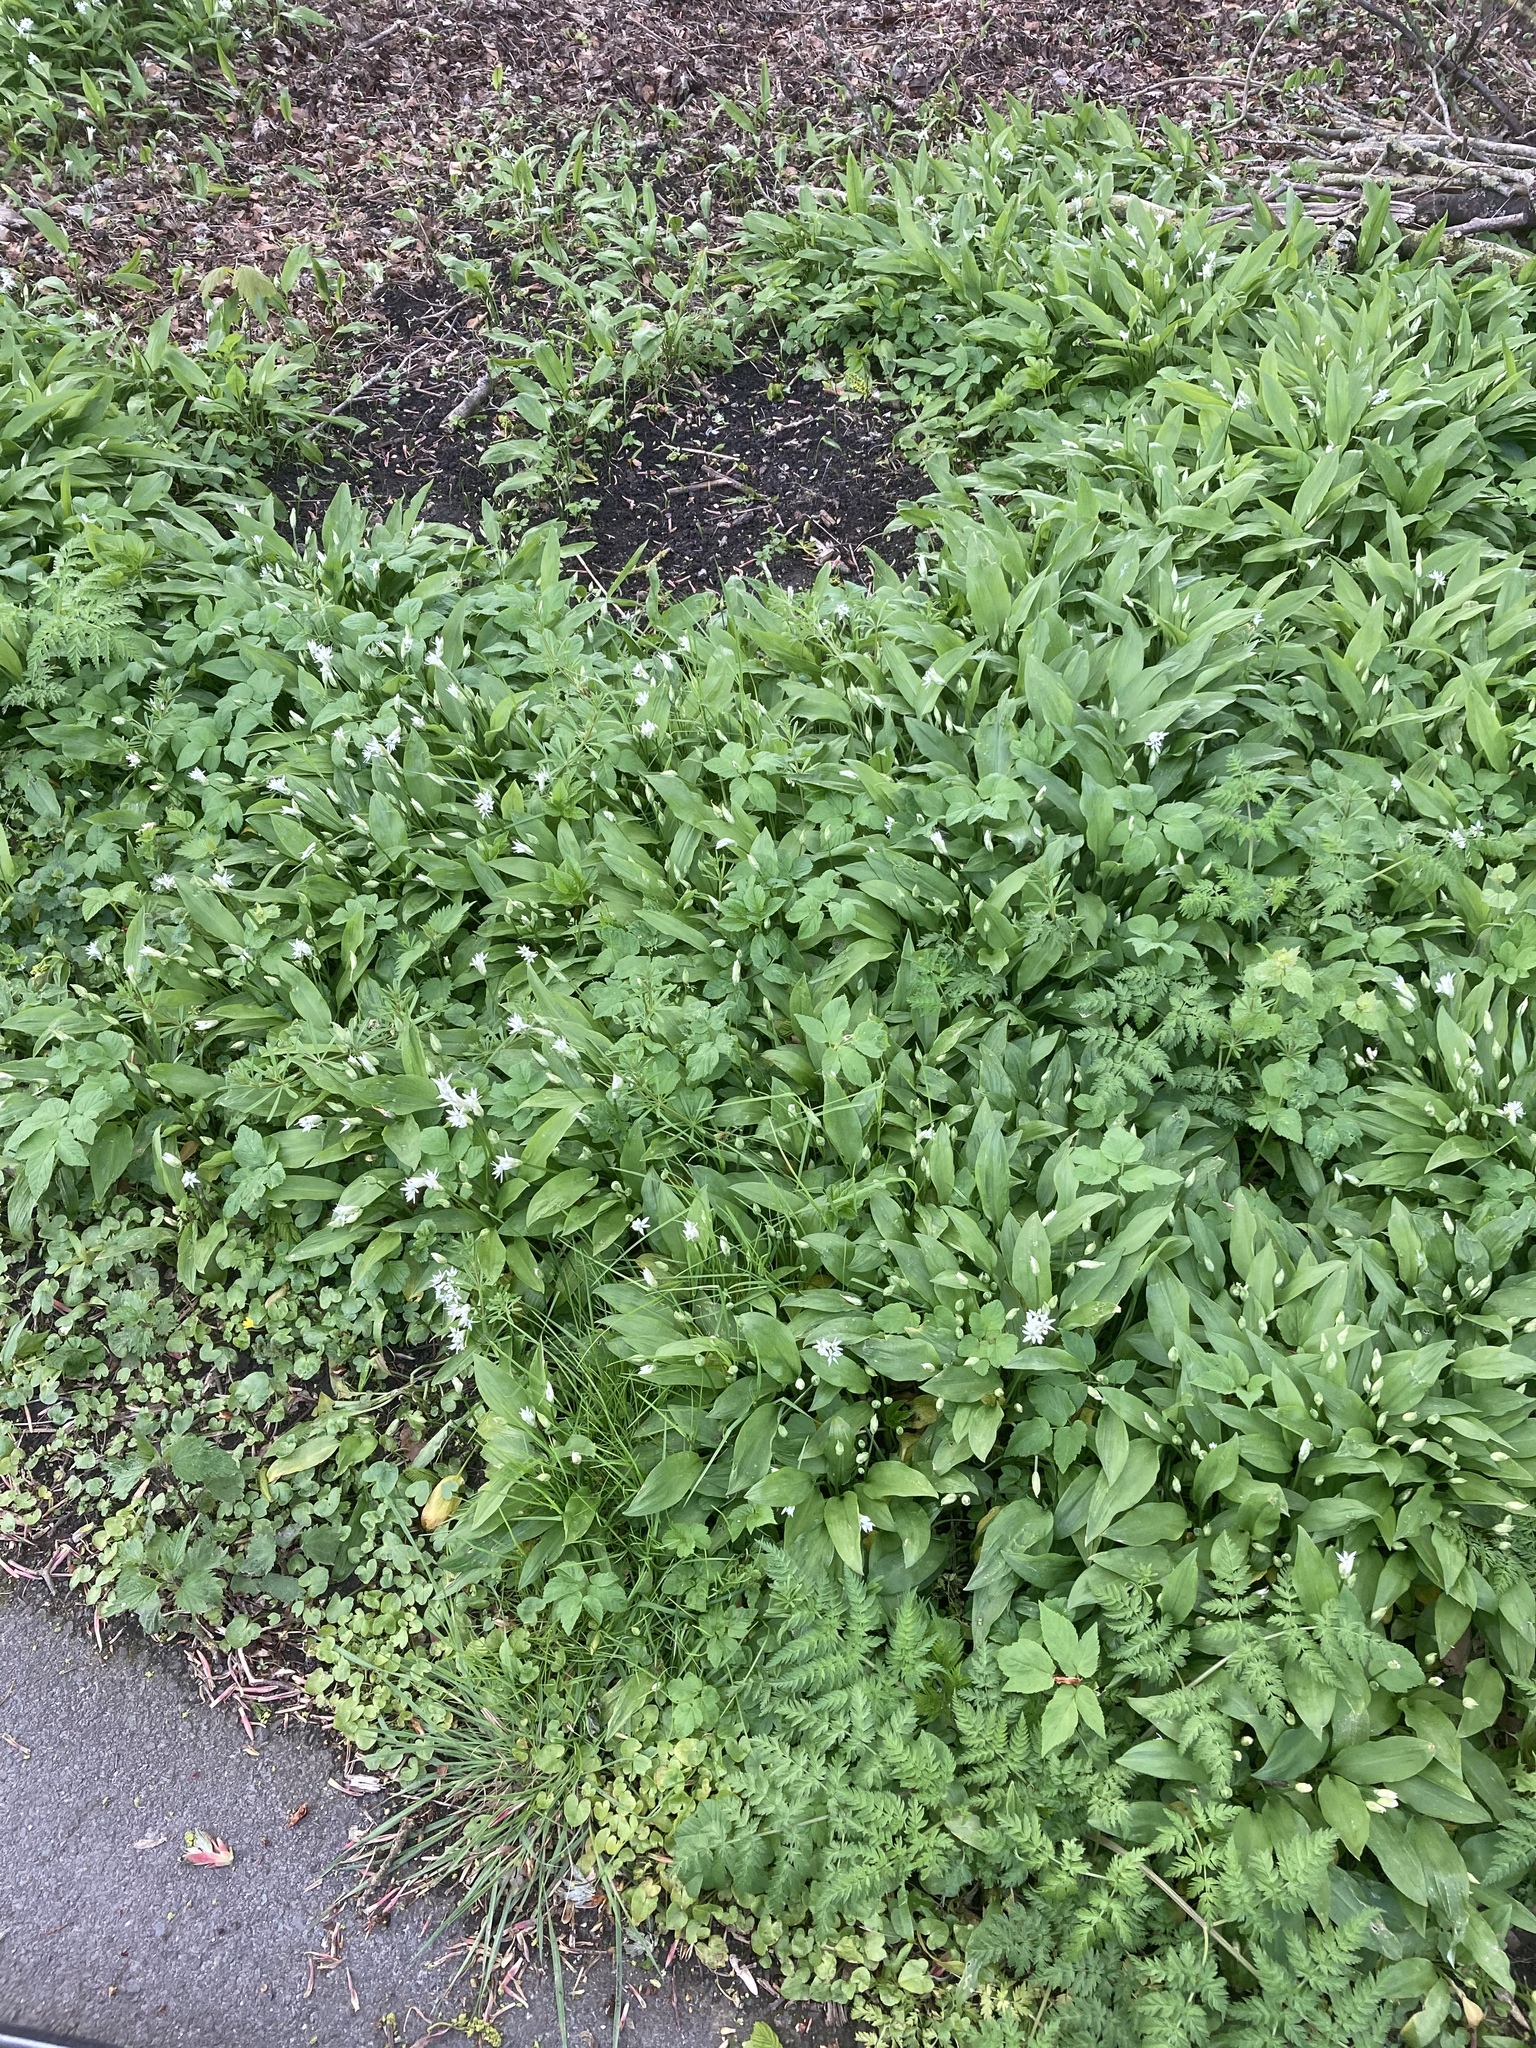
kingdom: Plantae
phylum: Tracheophyta
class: Liliopsida
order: Asparagales
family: Amaryllidaceae
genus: Allium
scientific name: Allium ursinum
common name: Ramsons
